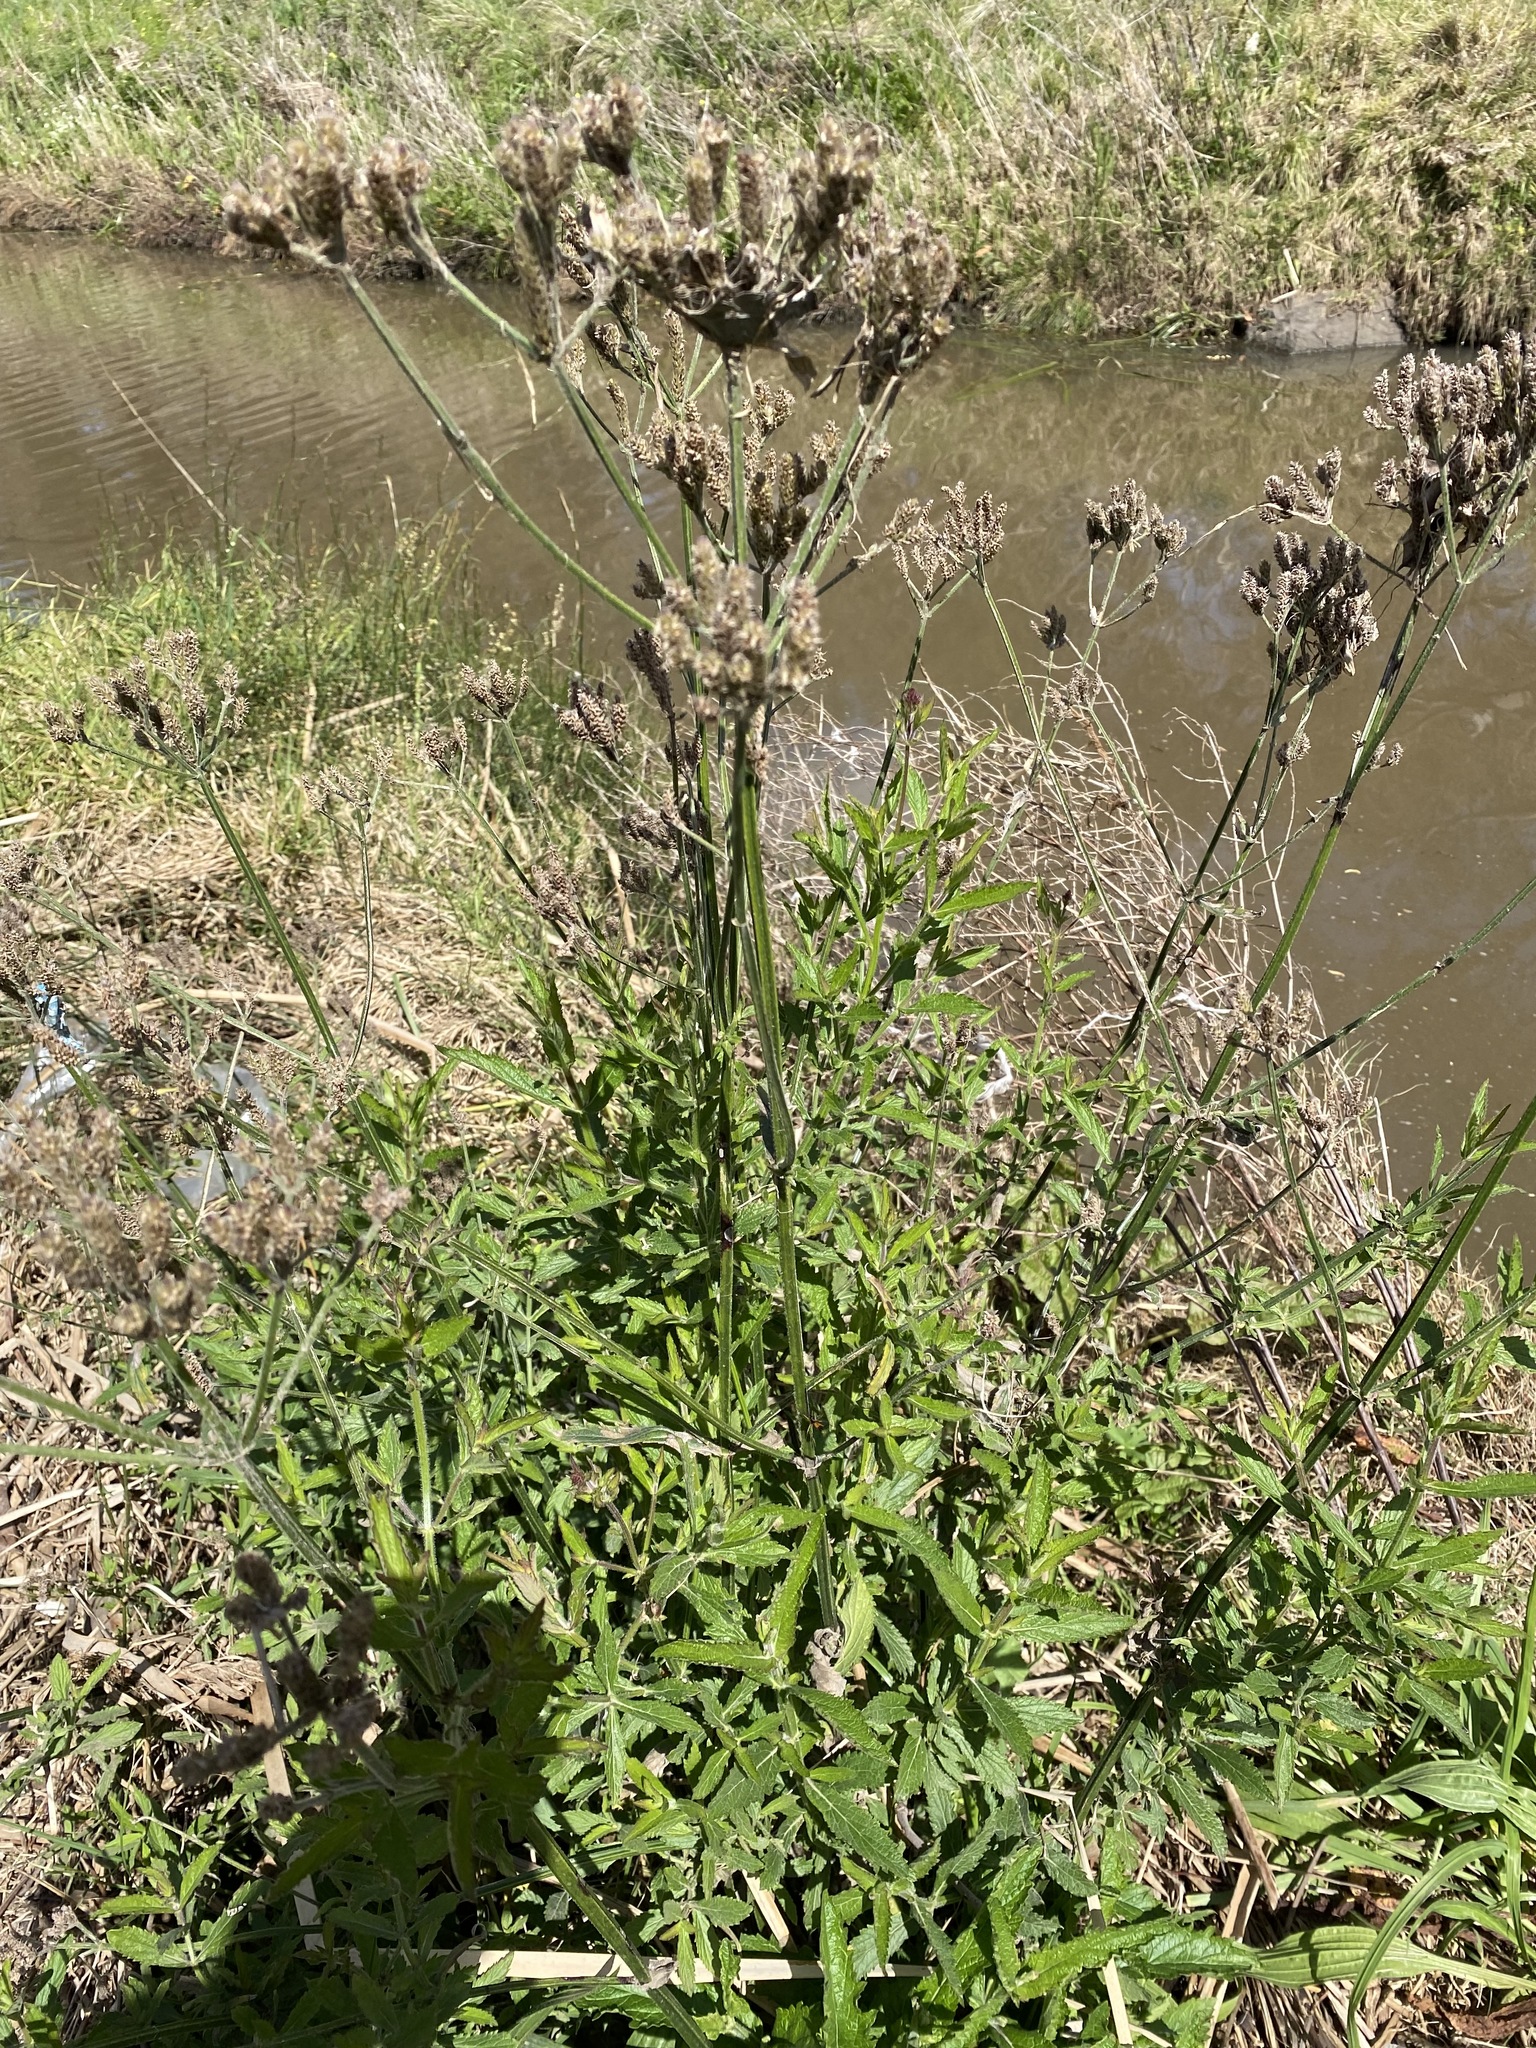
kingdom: Plantae
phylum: Tracheophyta
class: Magnoliopsida
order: Lamiales
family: Verbenaceae
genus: Verbena
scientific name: Verbena bonariensis
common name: Purpletop vervain
